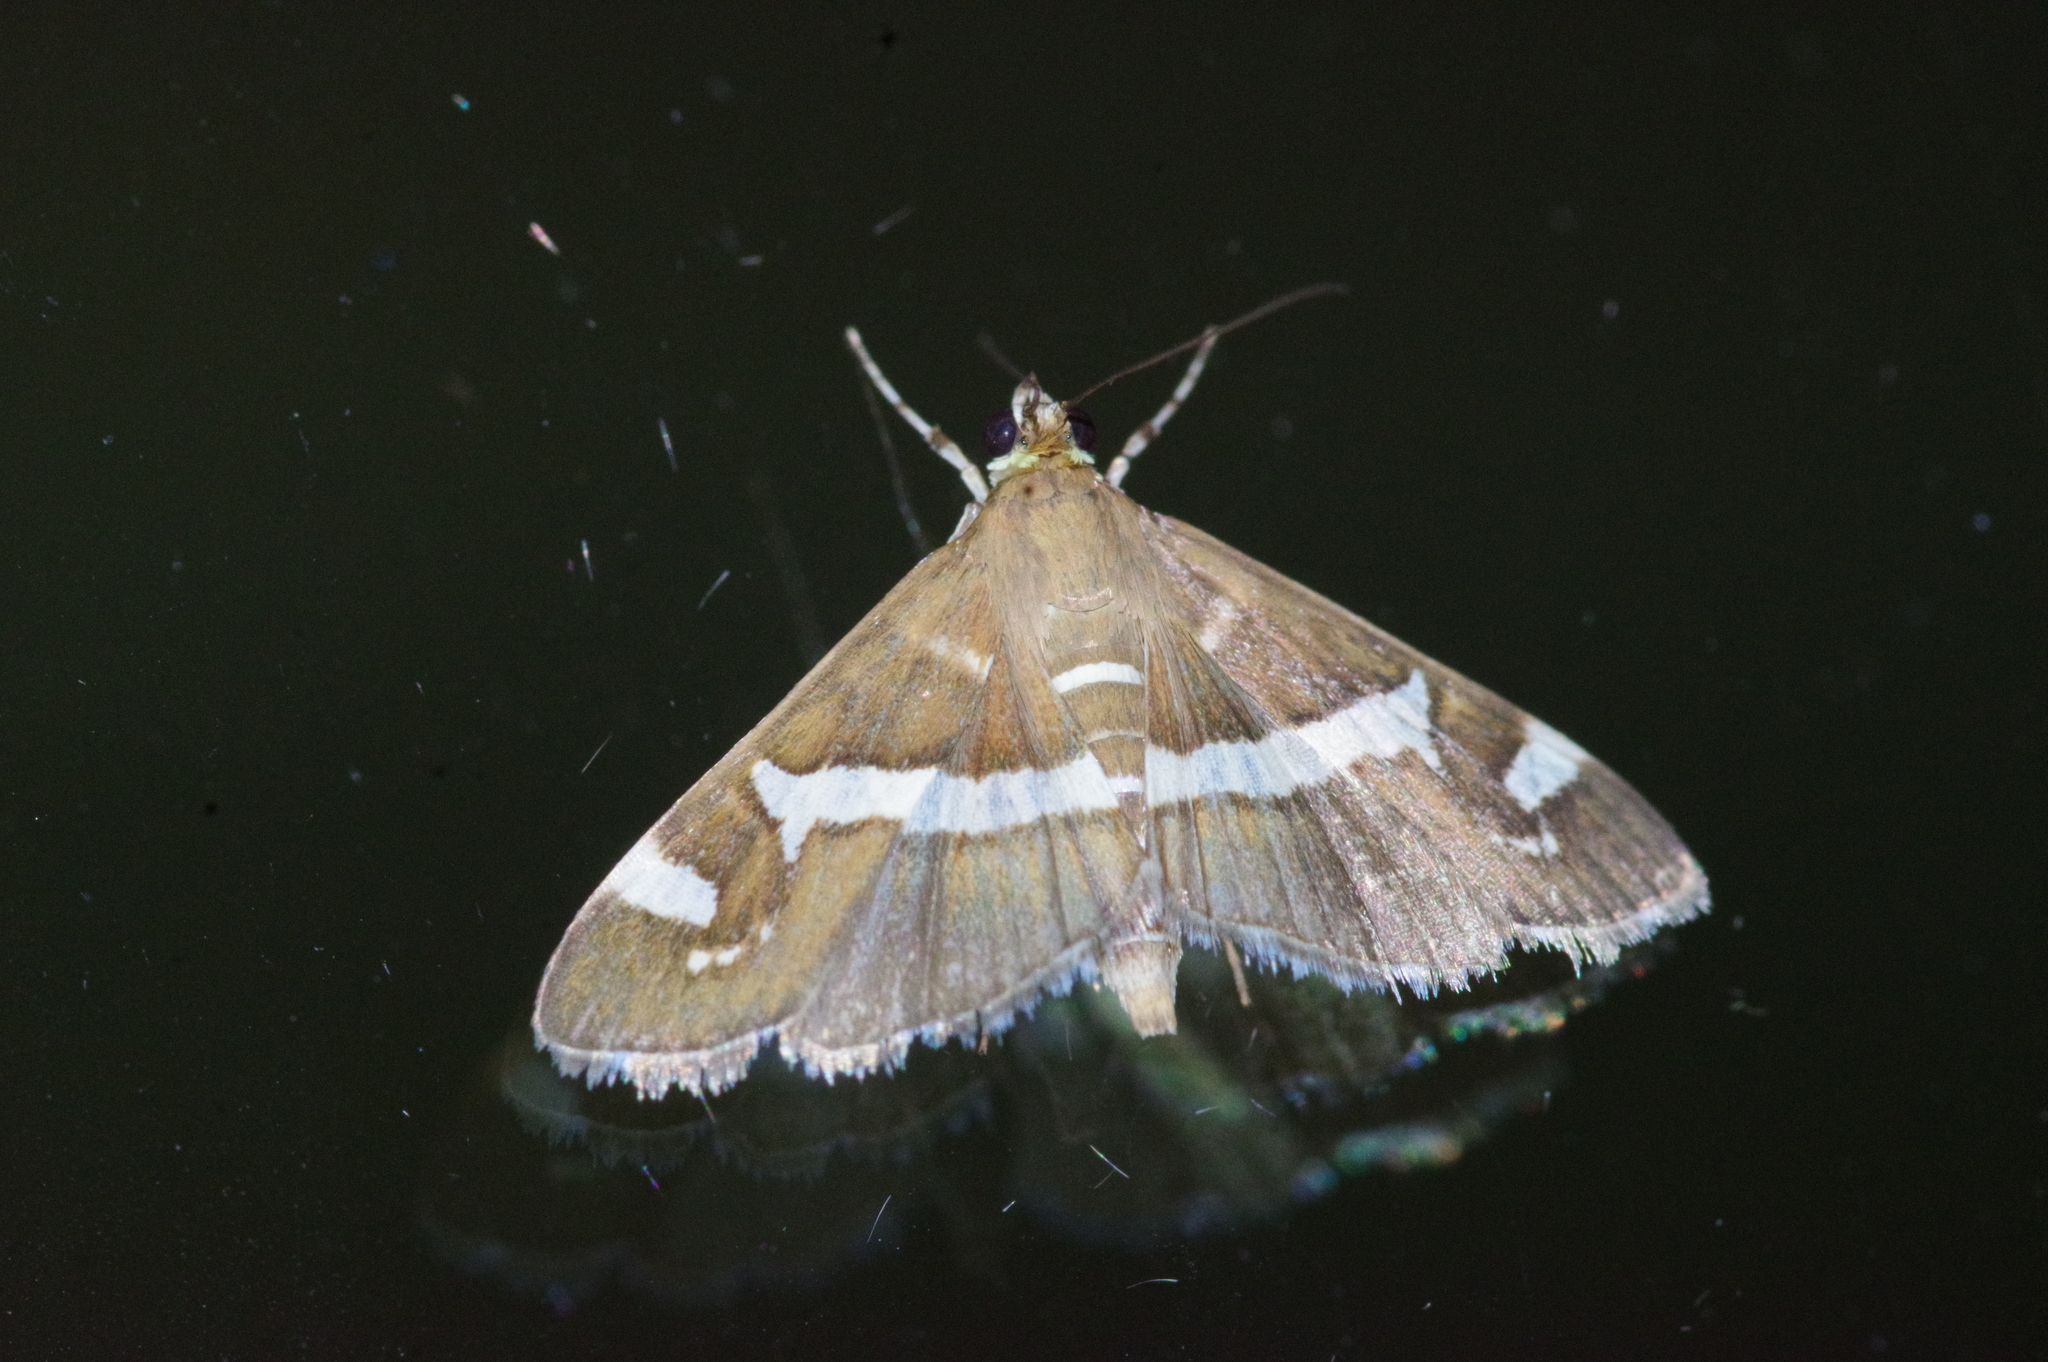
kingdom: Animalia
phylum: Arthropoda
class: Insecta
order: Lepidoptera
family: Crambidae
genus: Spoladea
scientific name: Spoladea recurvalis
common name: Beet webworm moth
